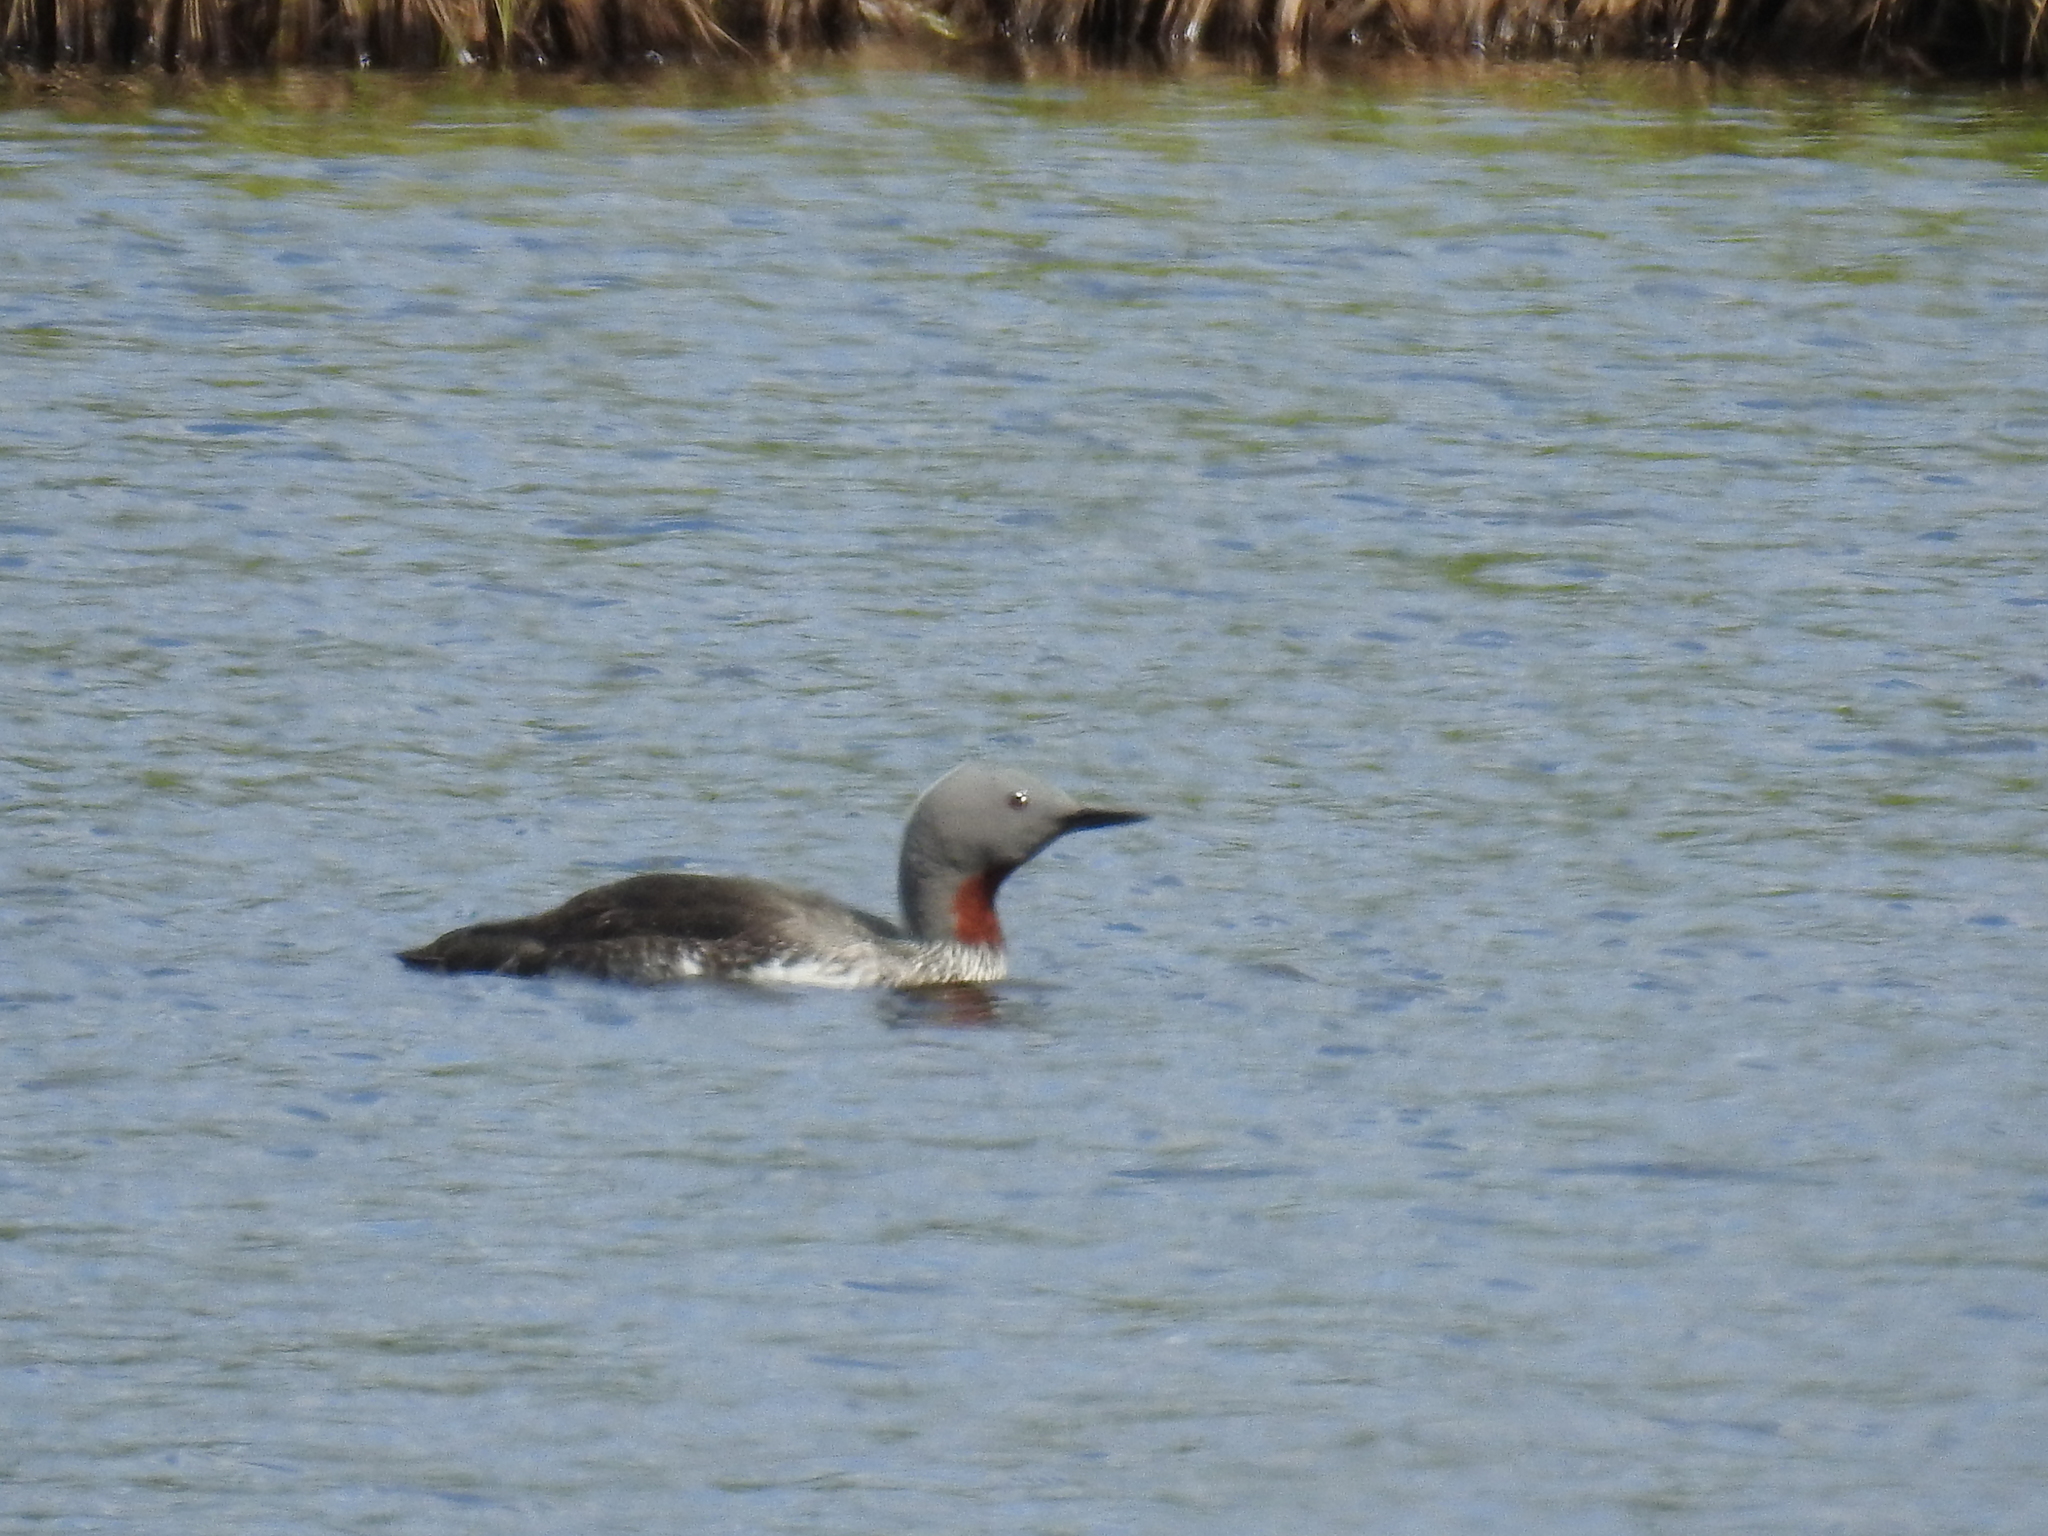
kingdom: Animalia
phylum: Chordata
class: Aves
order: Gaviiformes
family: Gaviidae
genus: Gavia
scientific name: Gavia stellata
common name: Red-throated loon
